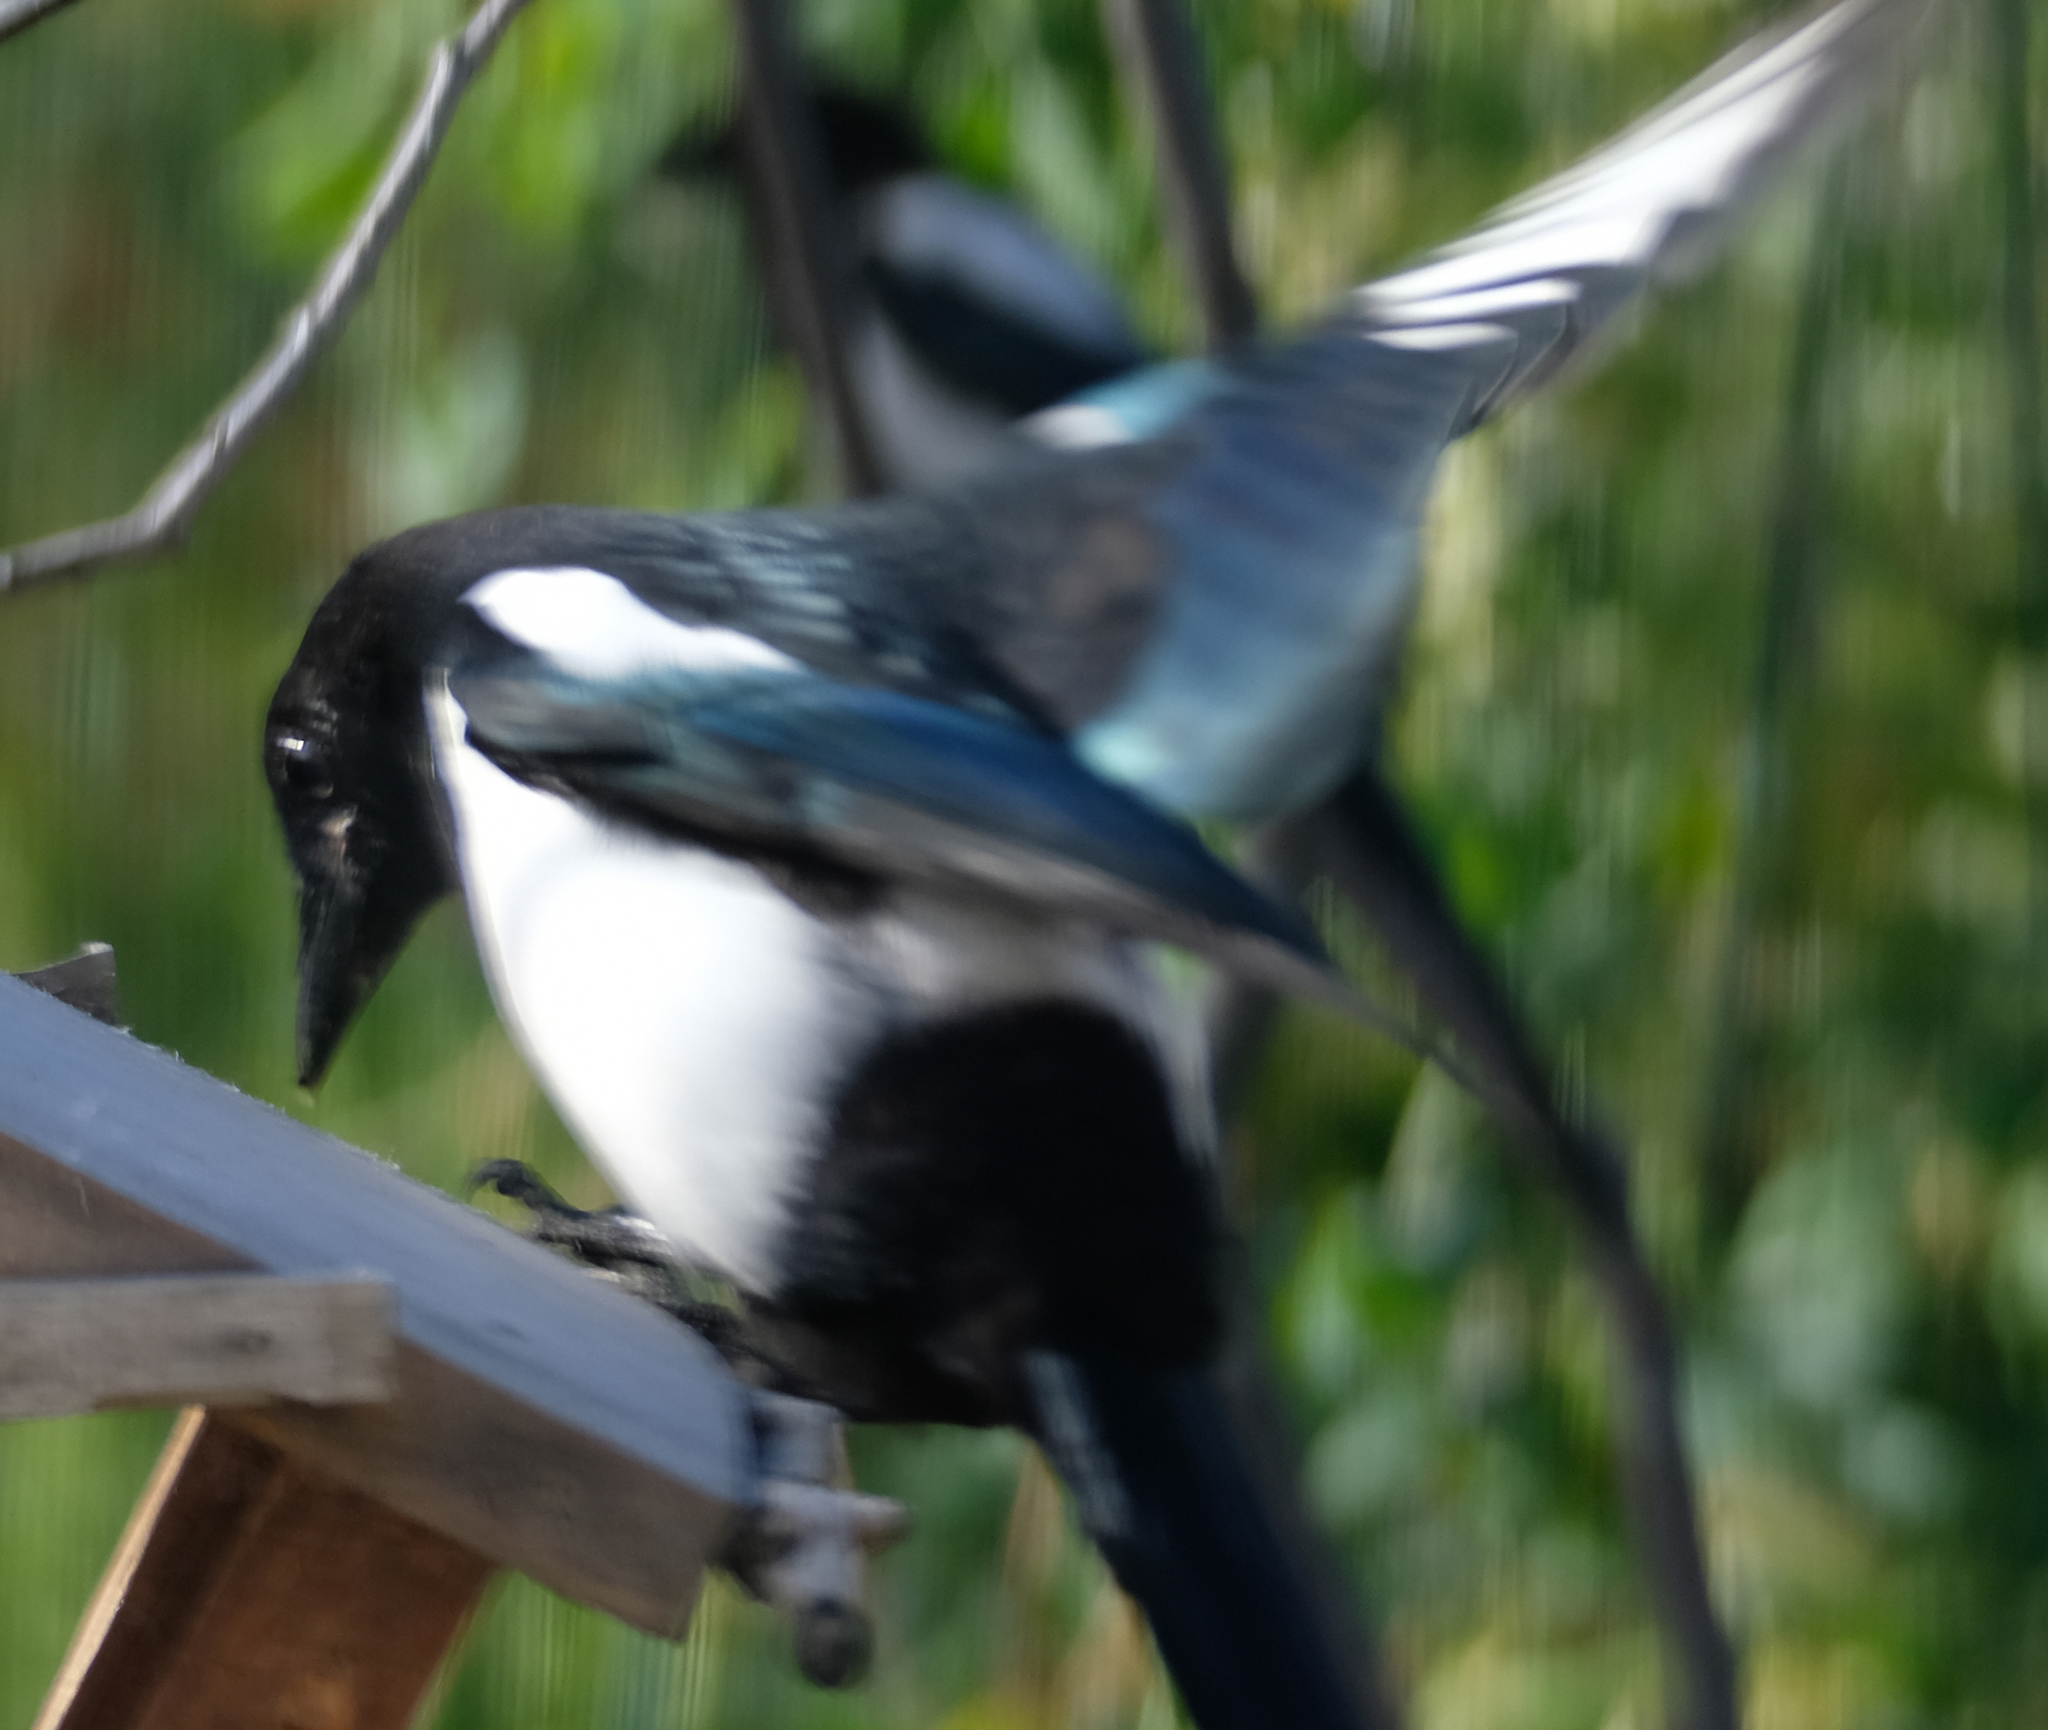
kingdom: Animalia
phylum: Chordata
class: Aves
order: Passeriformes
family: Corvidae
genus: Pica
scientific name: Pica hudsonia
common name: Black-billed magpie
